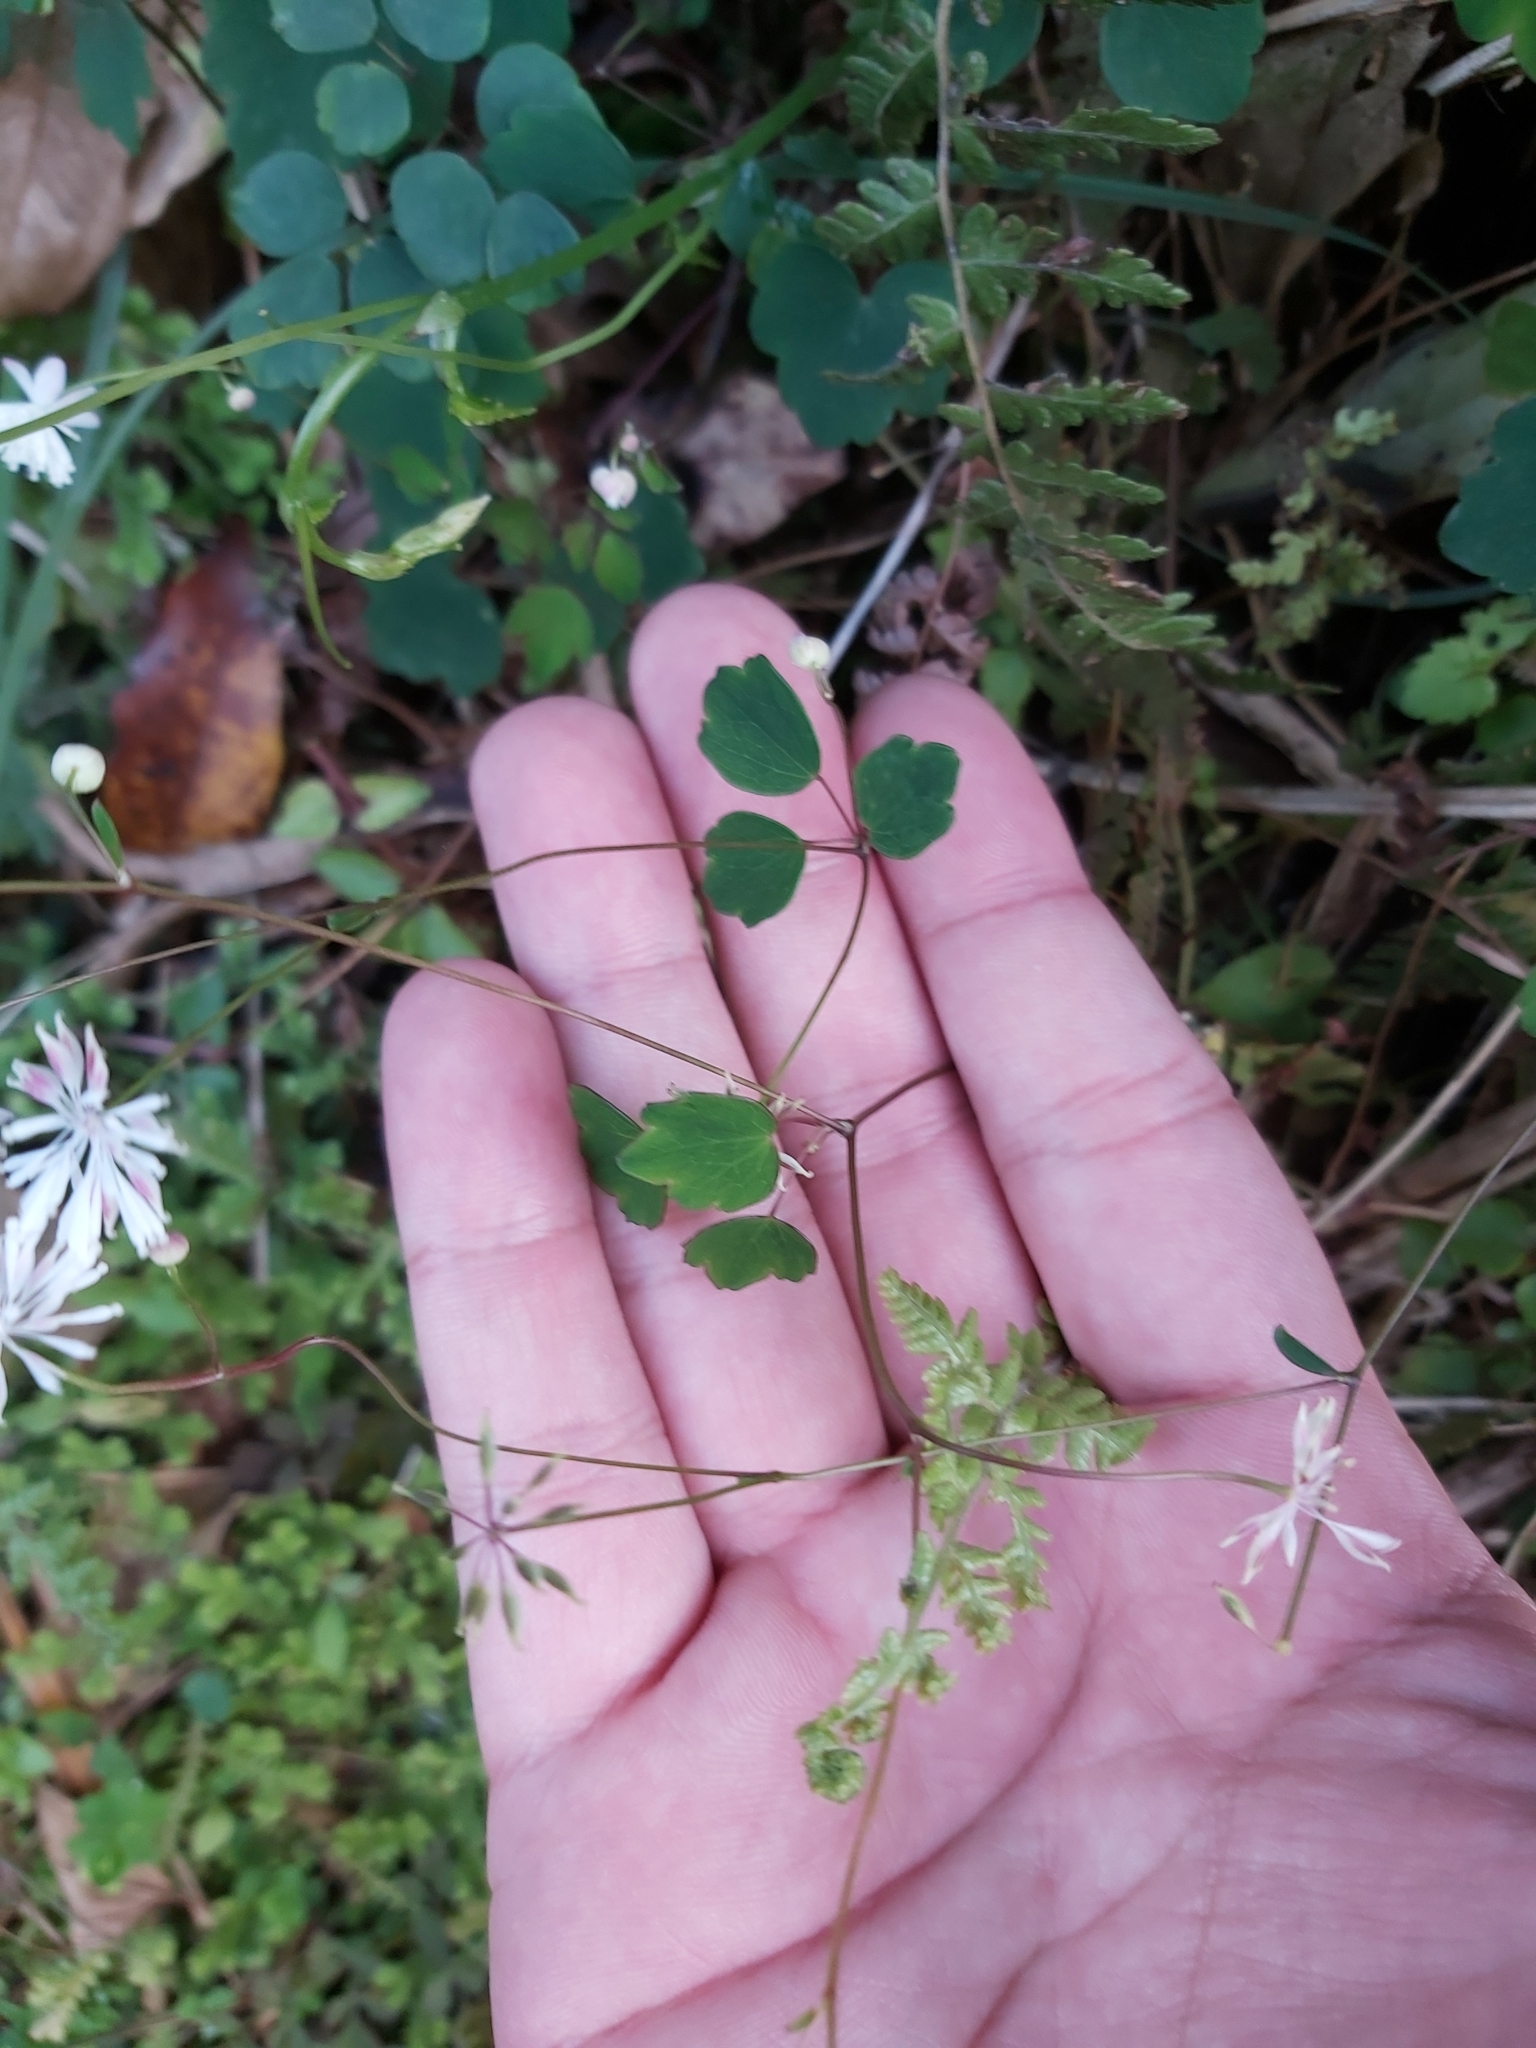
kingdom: Plantae
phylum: Tracheophyta
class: Magnoliopsida
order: Ranunculales
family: Ranunculaceae
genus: Thalictrum
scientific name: Thalictrum urbaini
